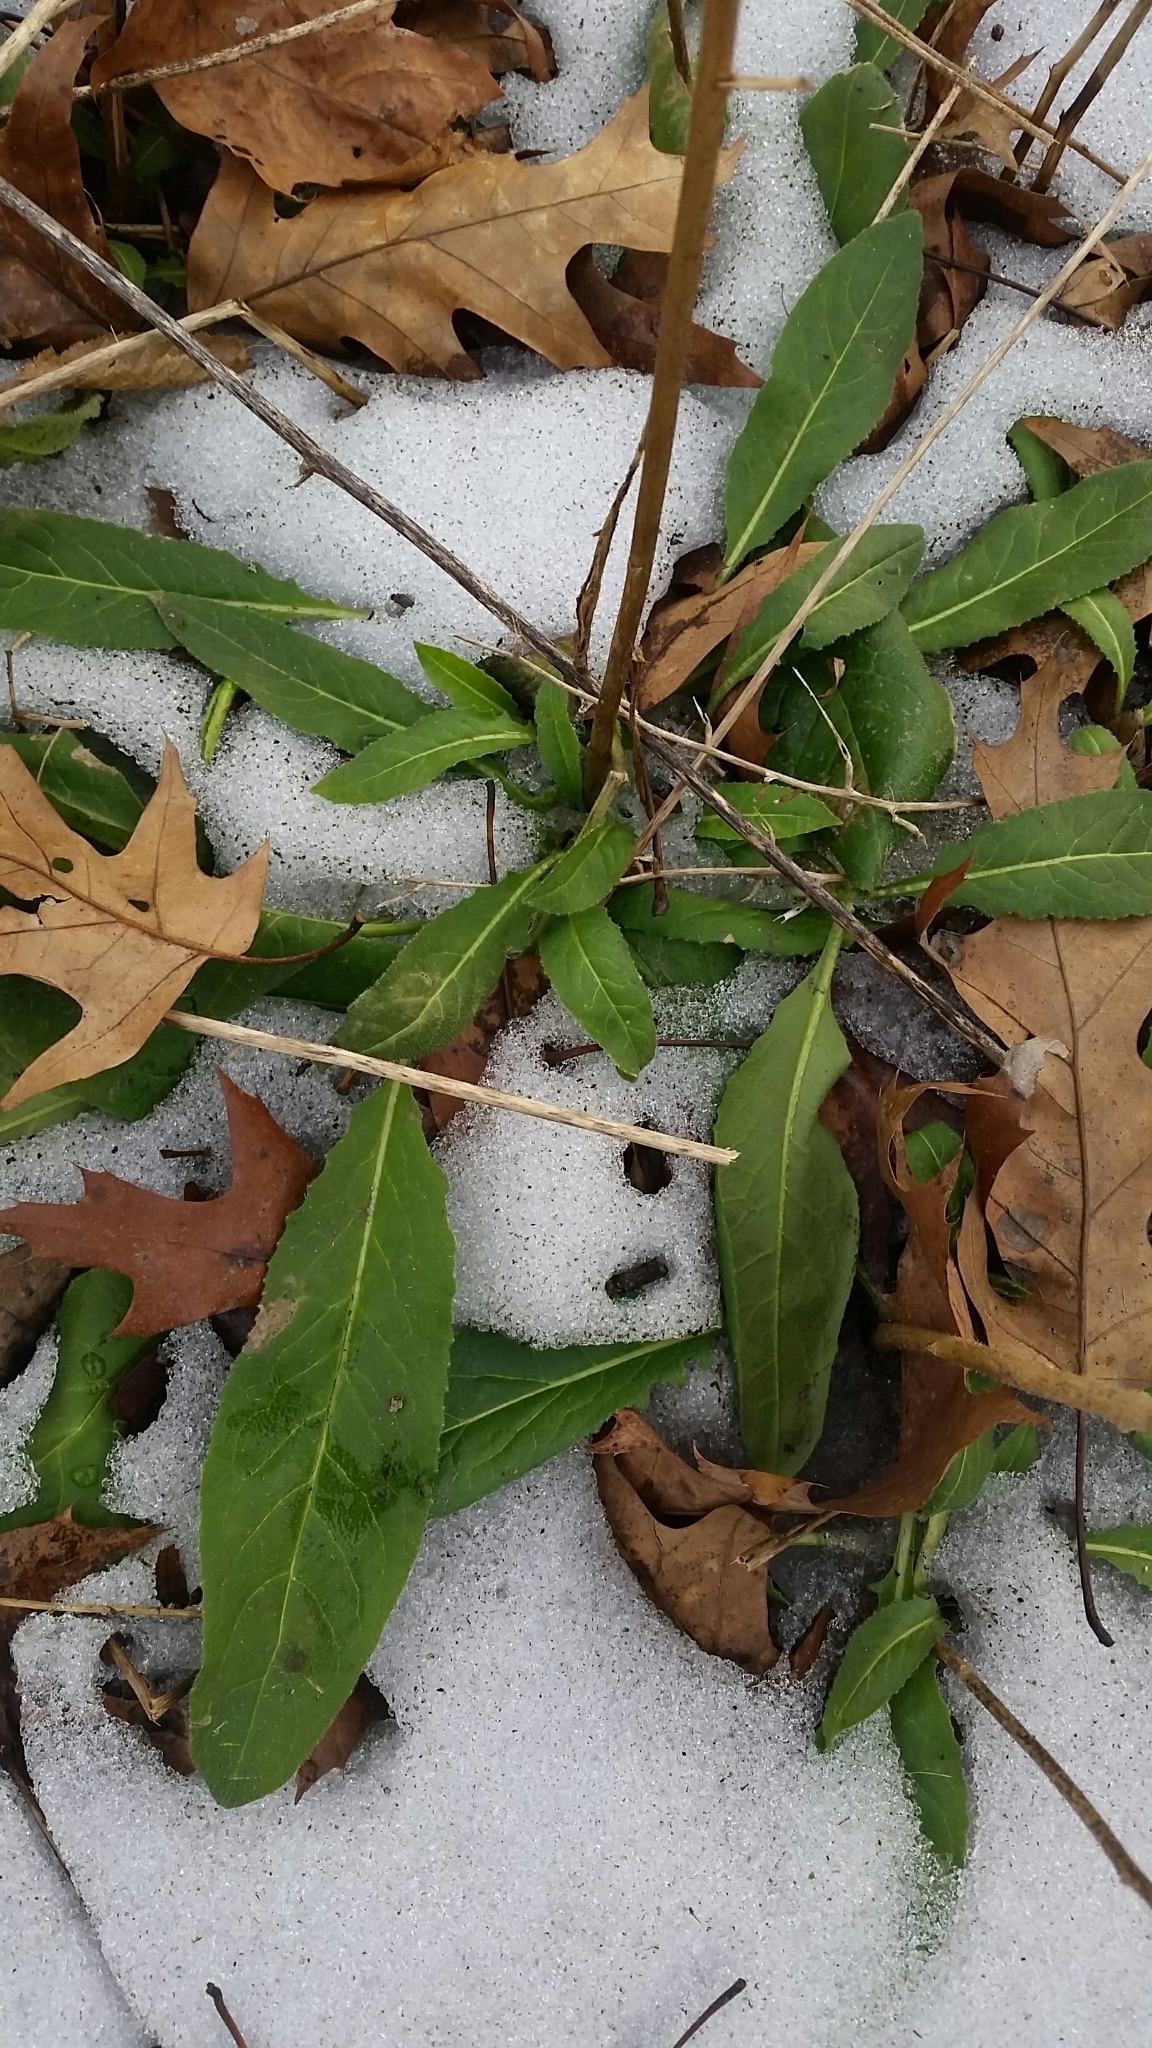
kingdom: Plantae
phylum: Tracheophyta
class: Magnoliopsida
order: Brassicales
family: Brassicaceae
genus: Hesperis
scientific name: Hesperis matronalis
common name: Dame's-violet
